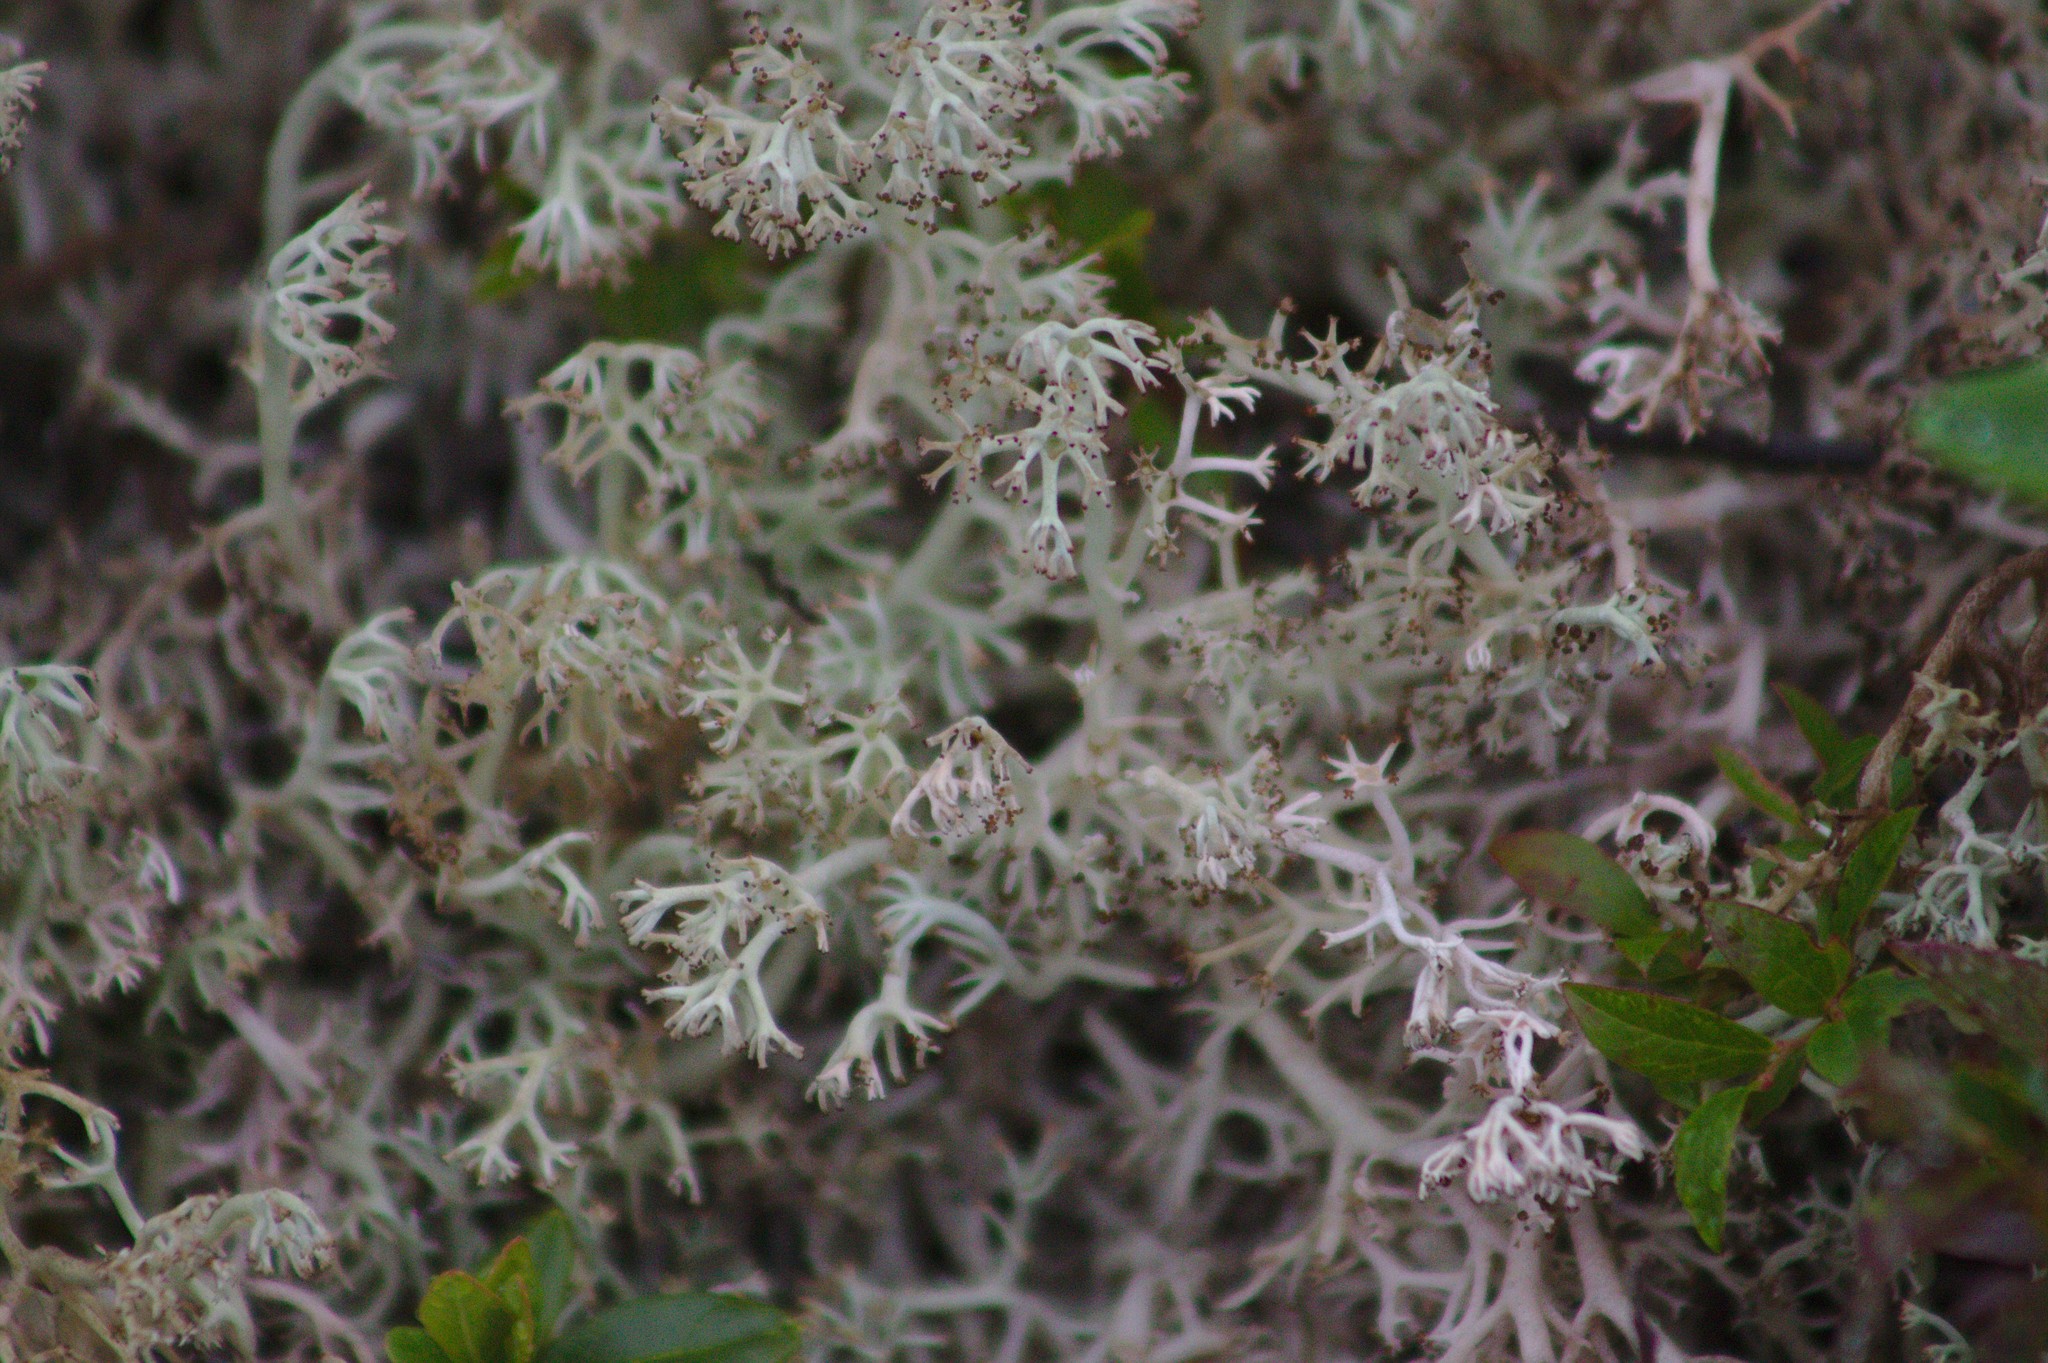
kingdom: Fungi
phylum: Ascomycota
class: Lecanoromycetes
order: Lecanorales
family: Cladoniaceae
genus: Cladonia
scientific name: Cladonia rangiferina
